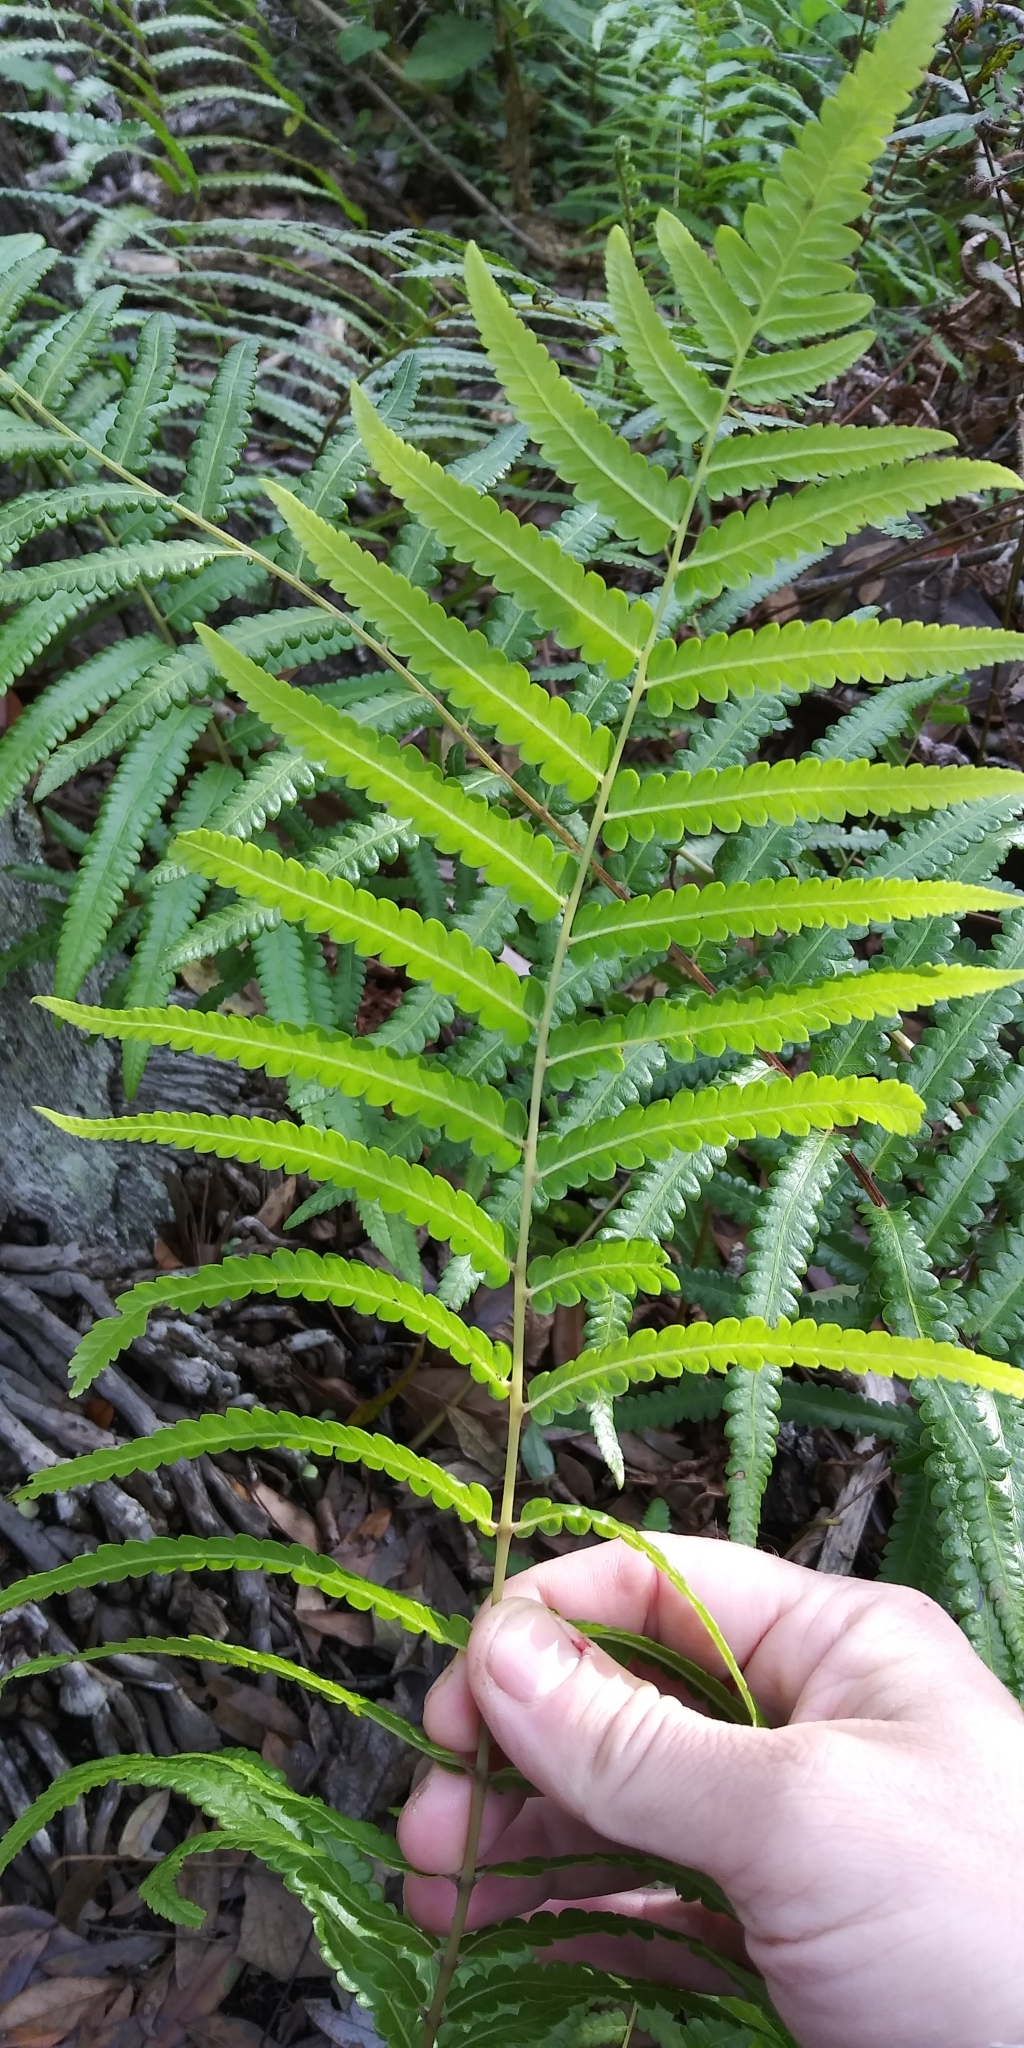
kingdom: Plantae
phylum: Tracheophyta
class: Polypodiopsida
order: Polypodiales
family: Thelypteridaceae
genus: Cyclosorus
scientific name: Cyclosorus interruptus
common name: Neke fern
